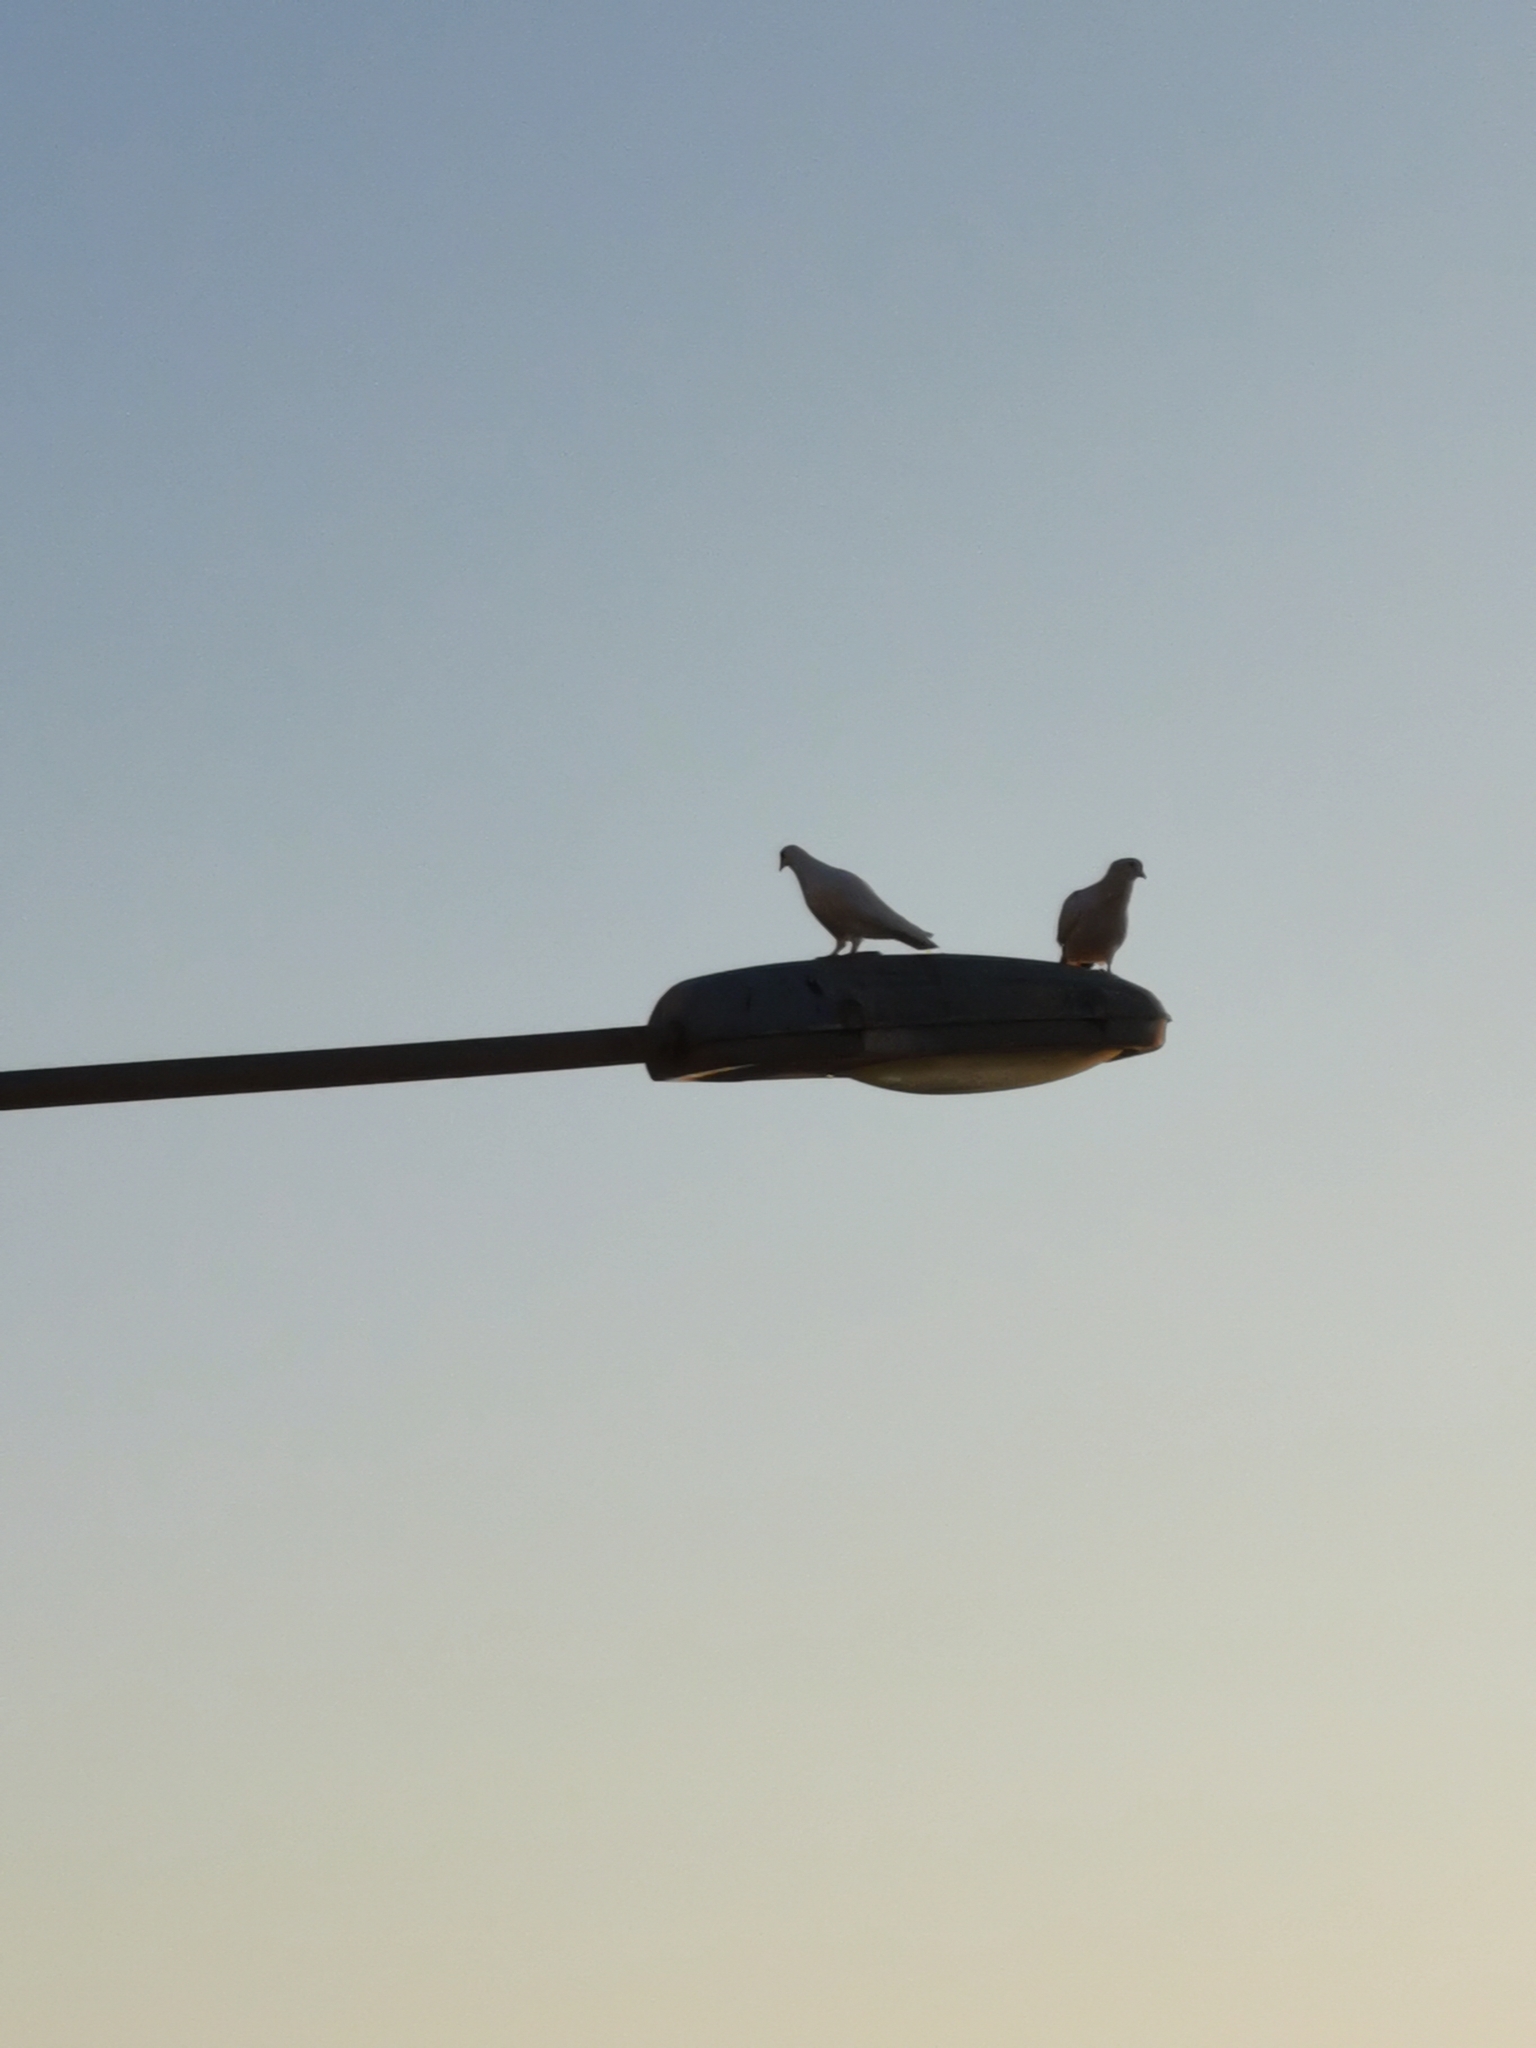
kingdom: Animalia
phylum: Chordata
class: Aves
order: Columbiformes
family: Columbidae
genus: Columba
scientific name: Columba livia
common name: Rock pigeon
